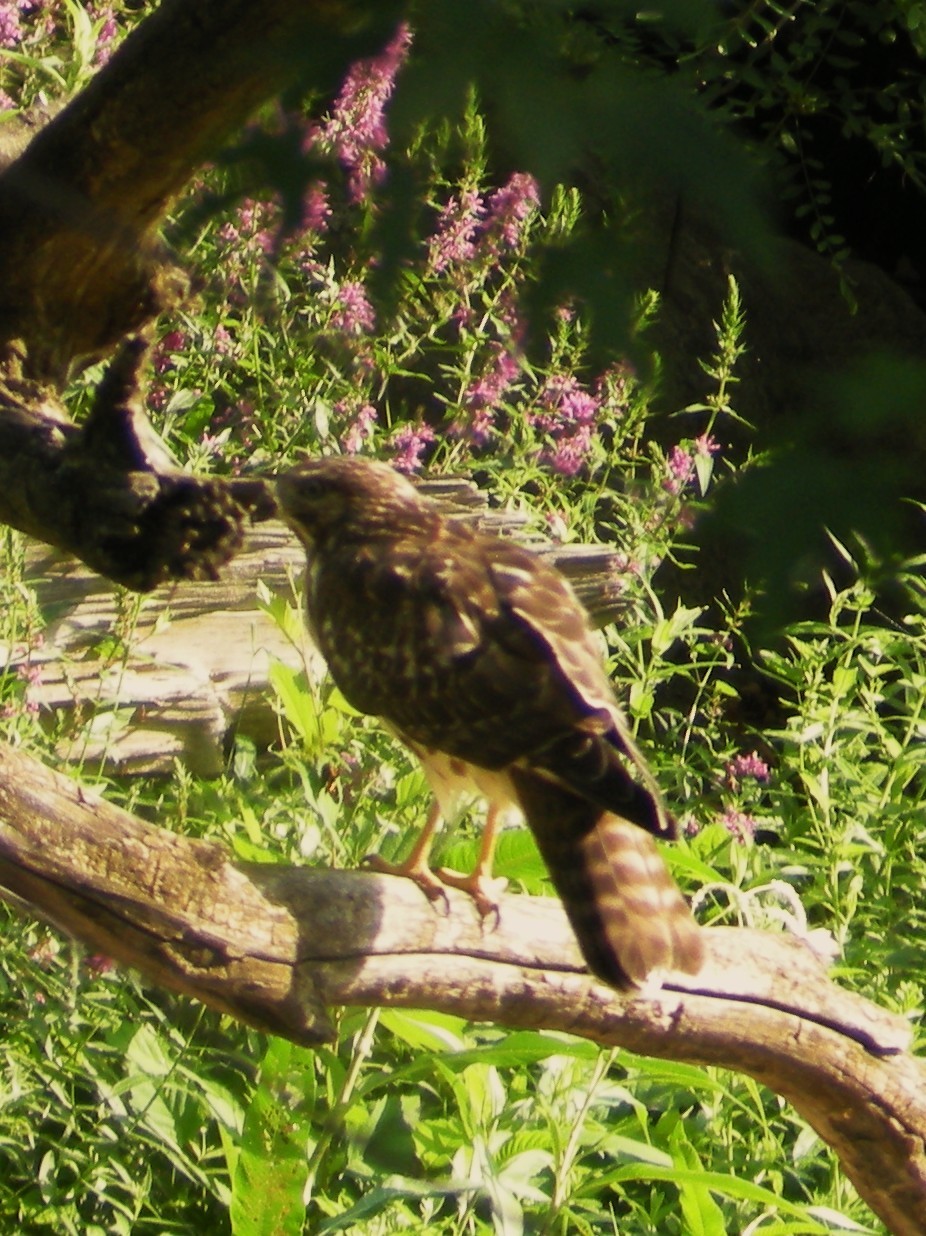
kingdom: Animalia
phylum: Chordata
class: Aves
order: Accipitriformes
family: Accipitridae
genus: Buteo
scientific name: Buteo lineatus
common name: Red-shouldered hawk
